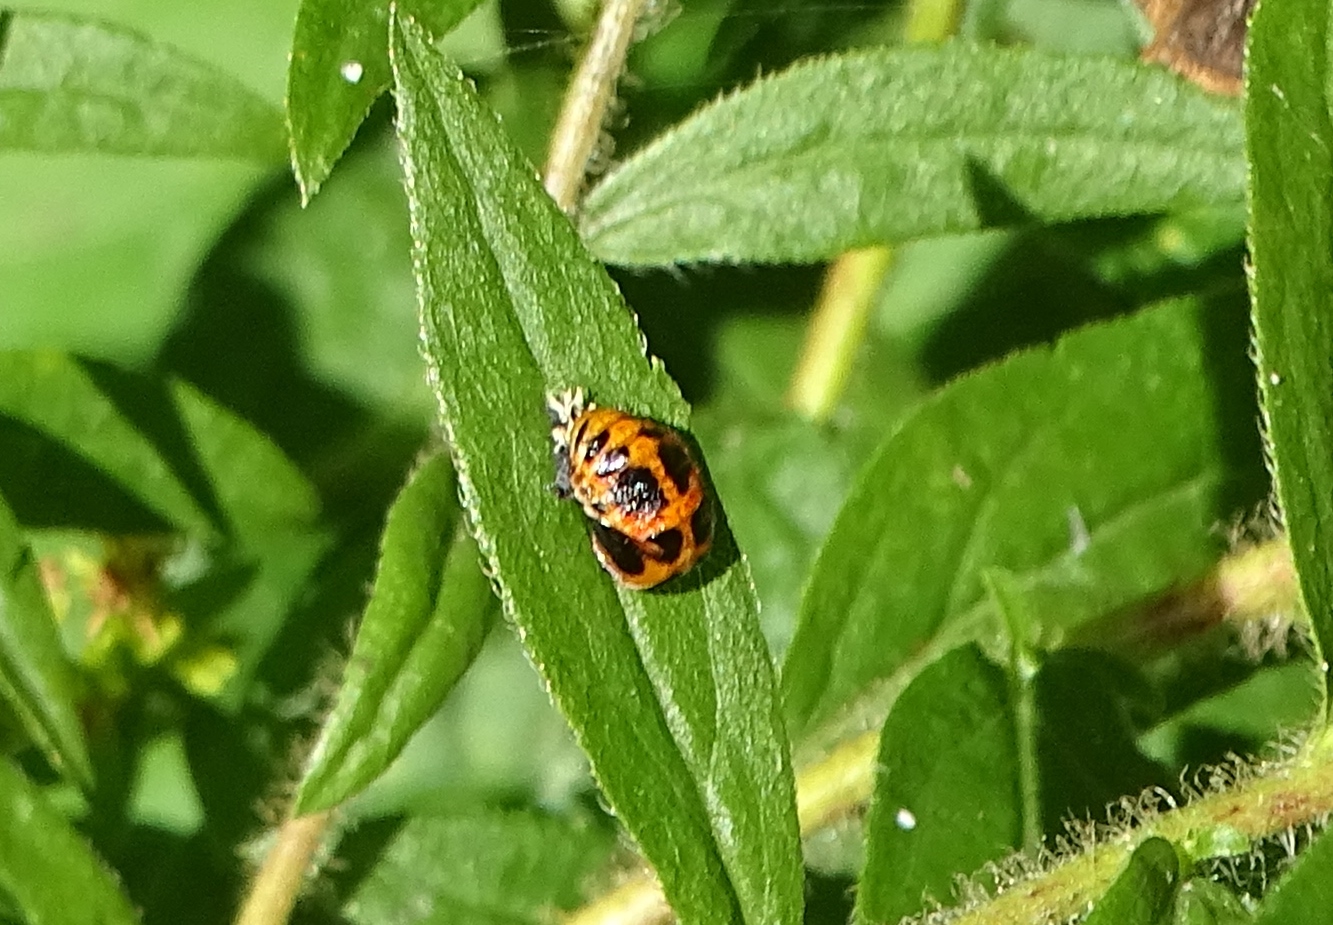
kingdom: Animalia
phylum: Arthropoda
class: Insecta
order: Coleoptera
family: Coccinellidae
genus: Harmonia
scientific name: Harmonia axyridis
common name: Harlequin ladybird
